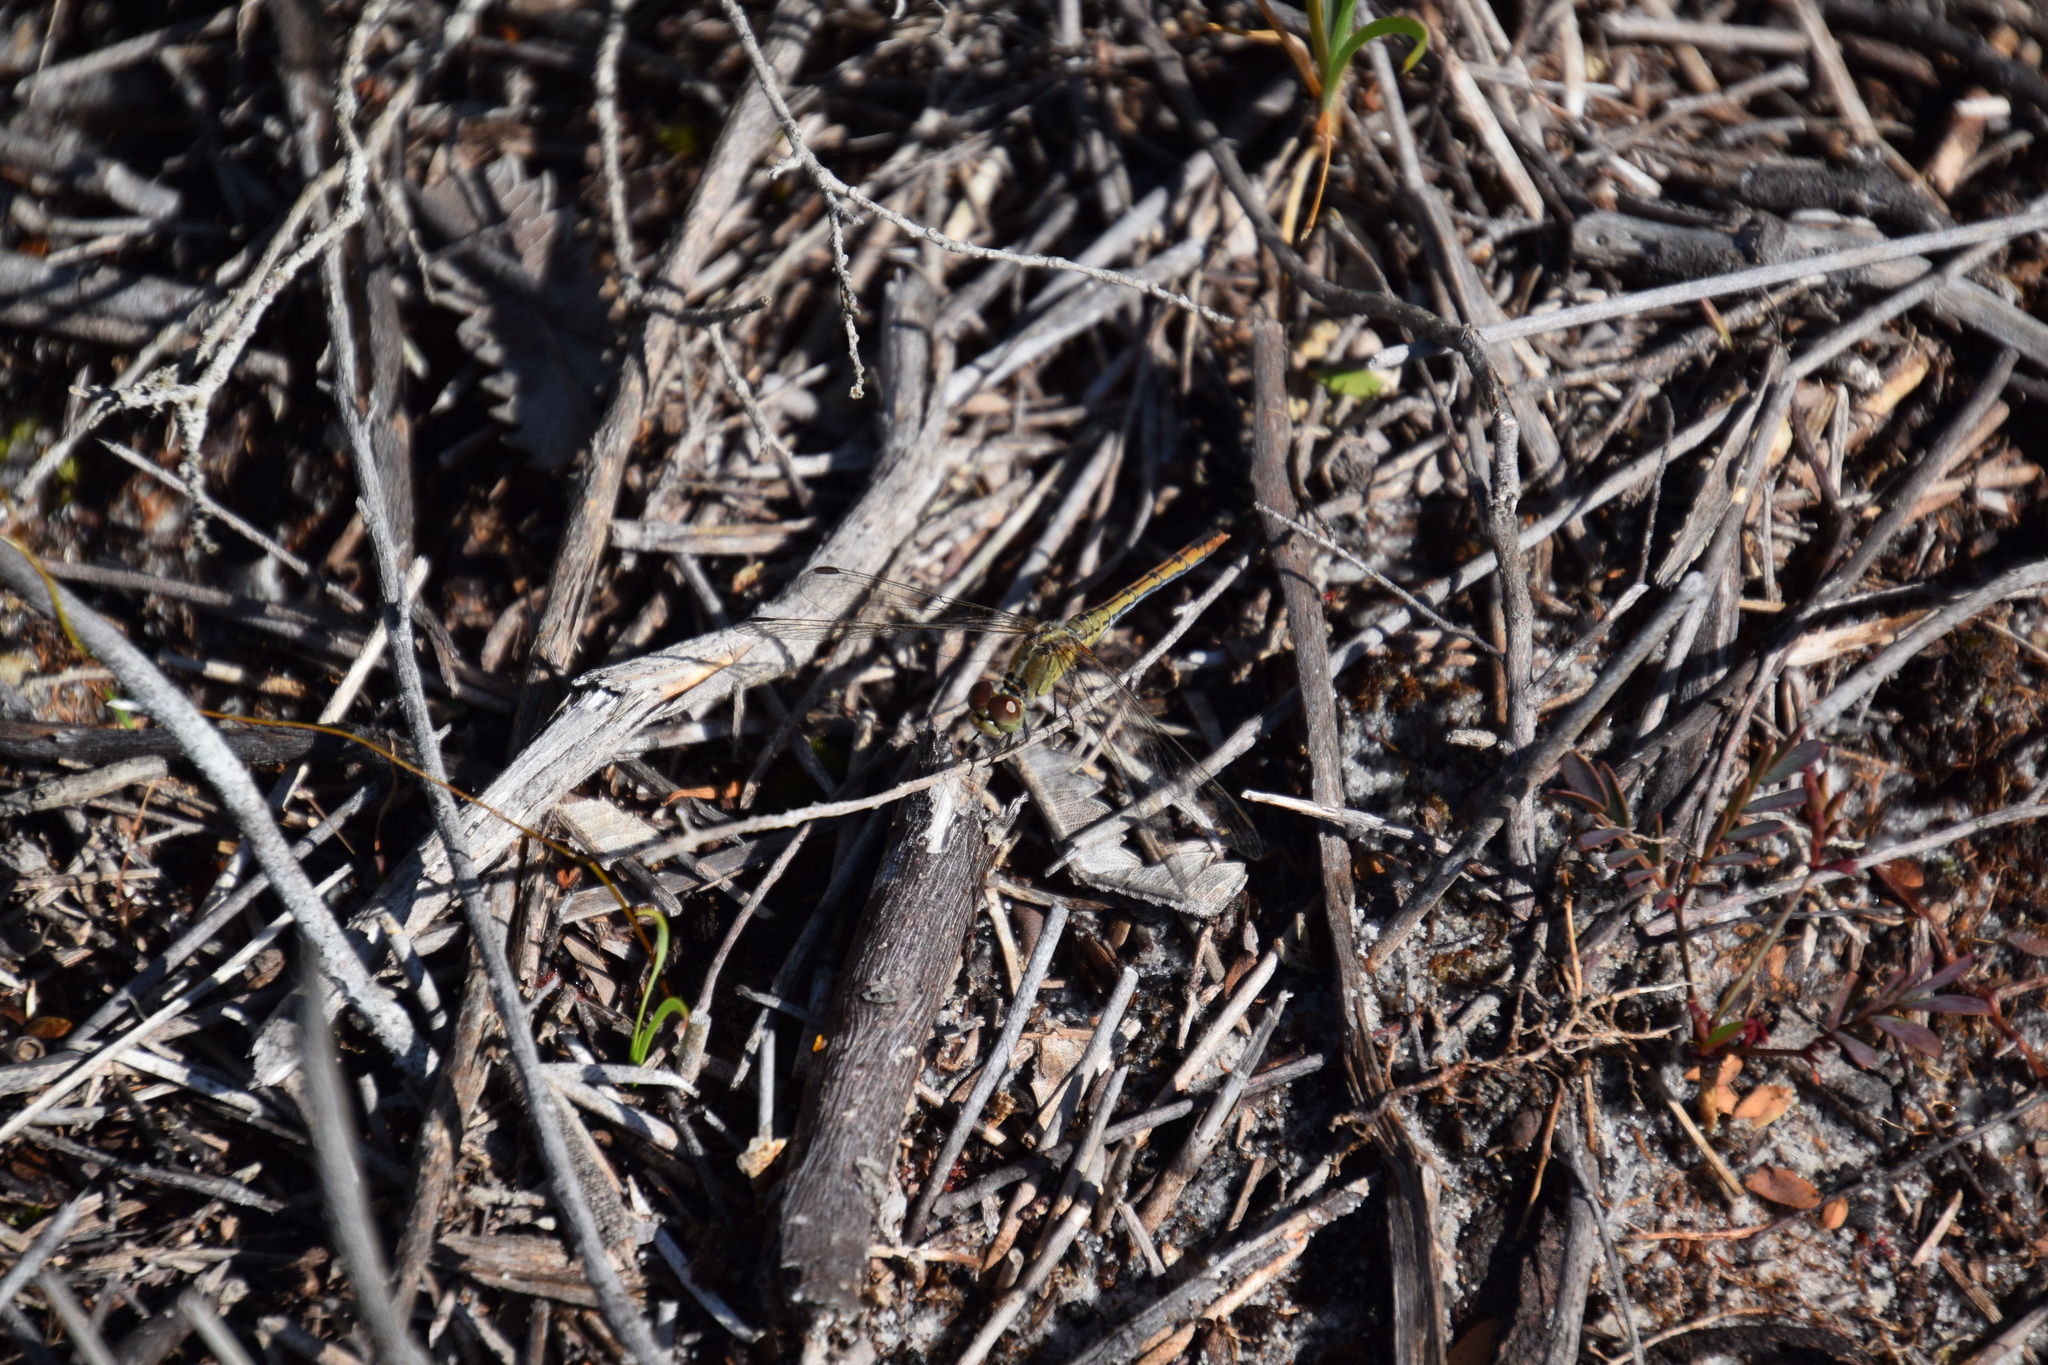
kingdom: Animalia
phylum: Arthropoda
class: Insecta
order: Odonata
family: Libellulidae
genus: Diplacodes
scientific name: Diplacodes bipunctata
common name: Red percher dragonfly
